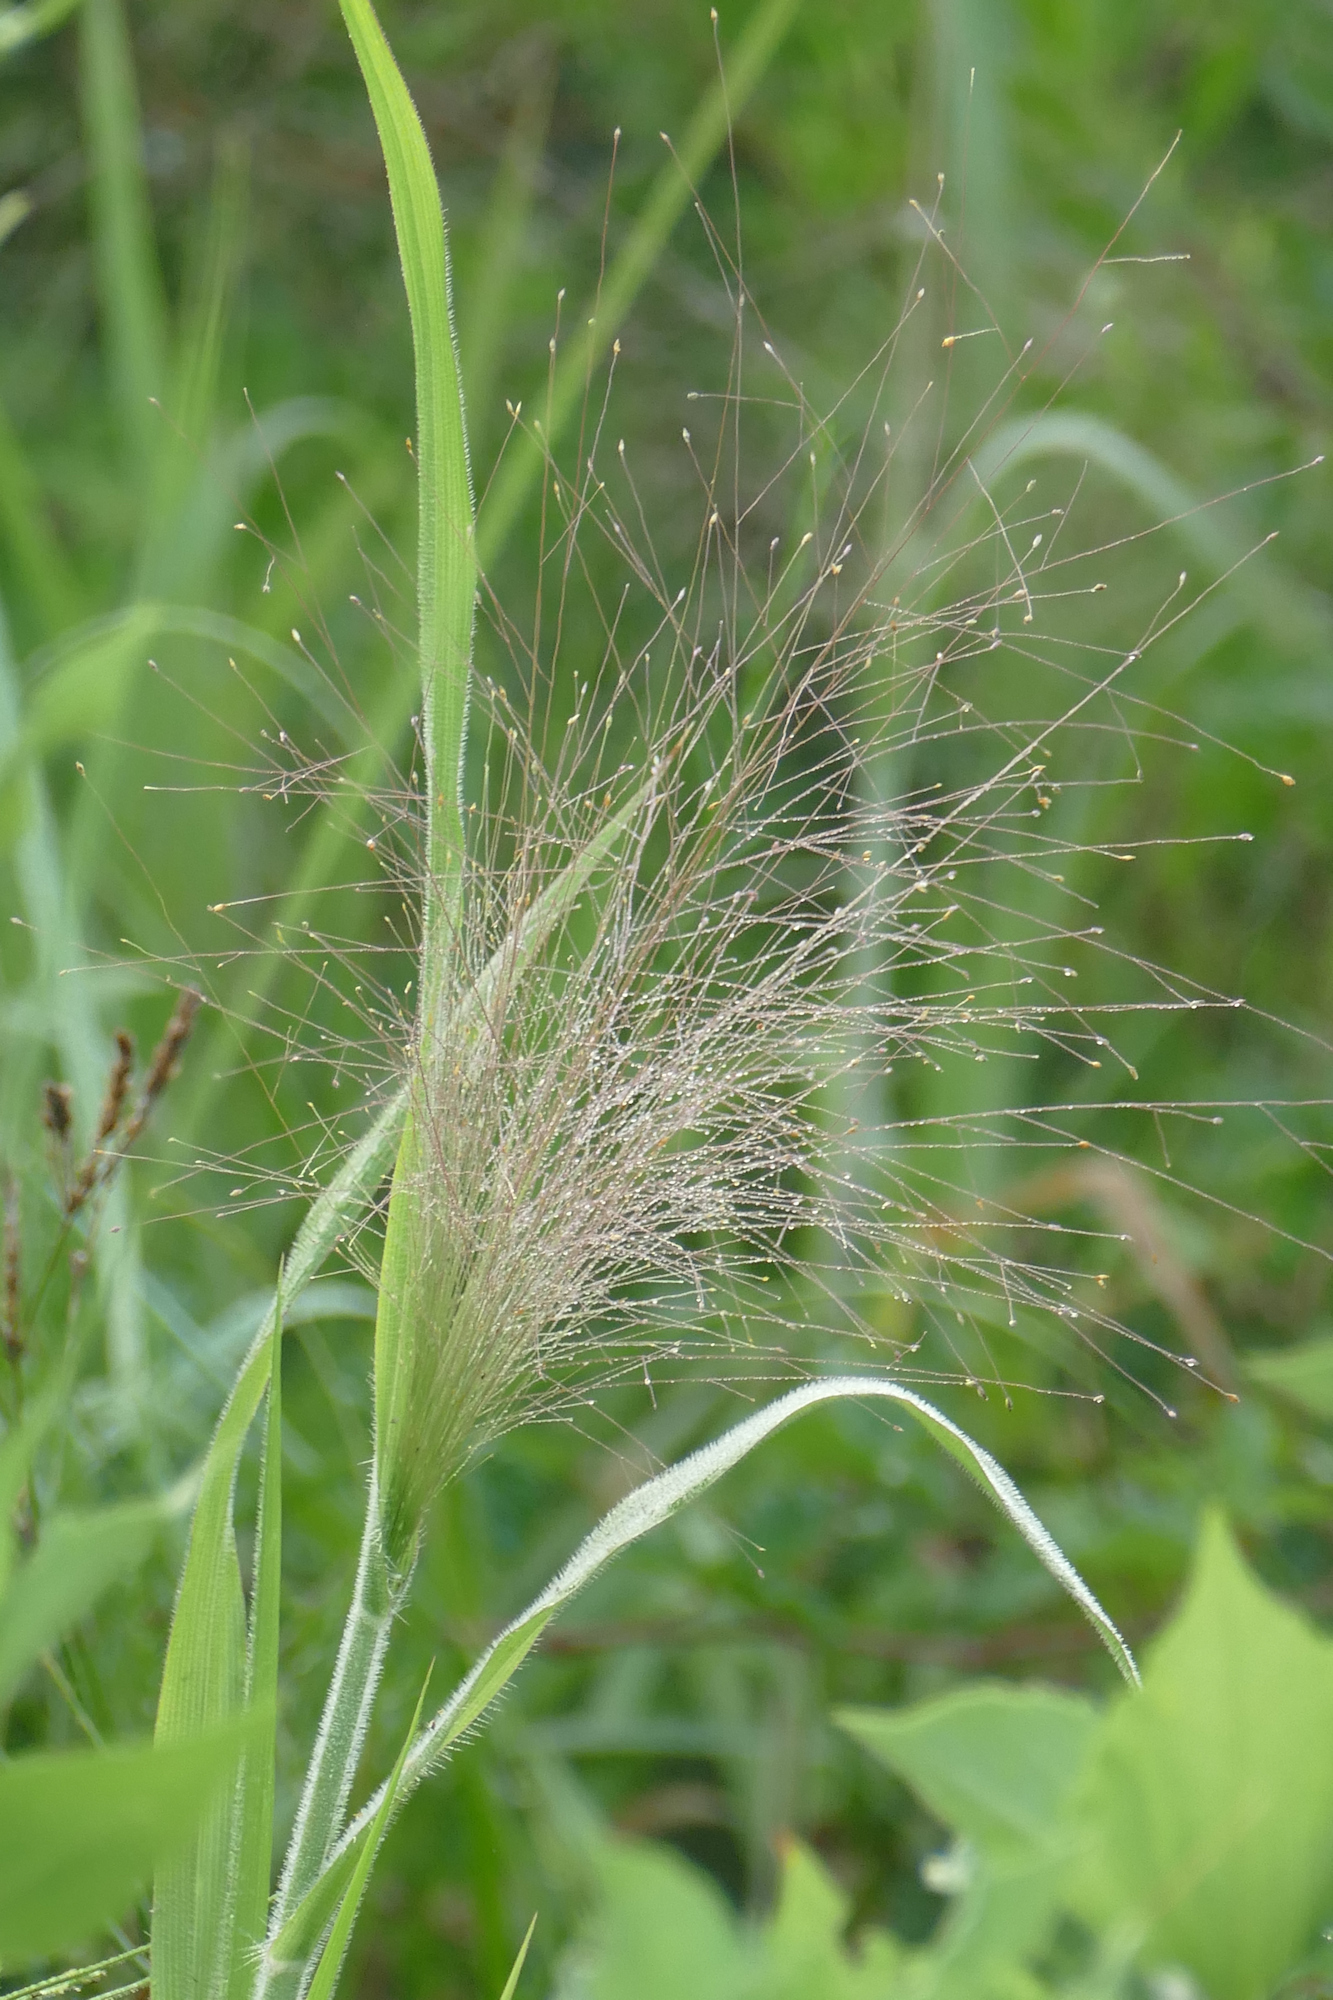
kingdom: Plantae
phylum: Tracheophyta
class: Liliopsida
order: Poales
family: Poaceae
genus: Panicum
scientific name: Panicum capillare
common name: Witch-grass
